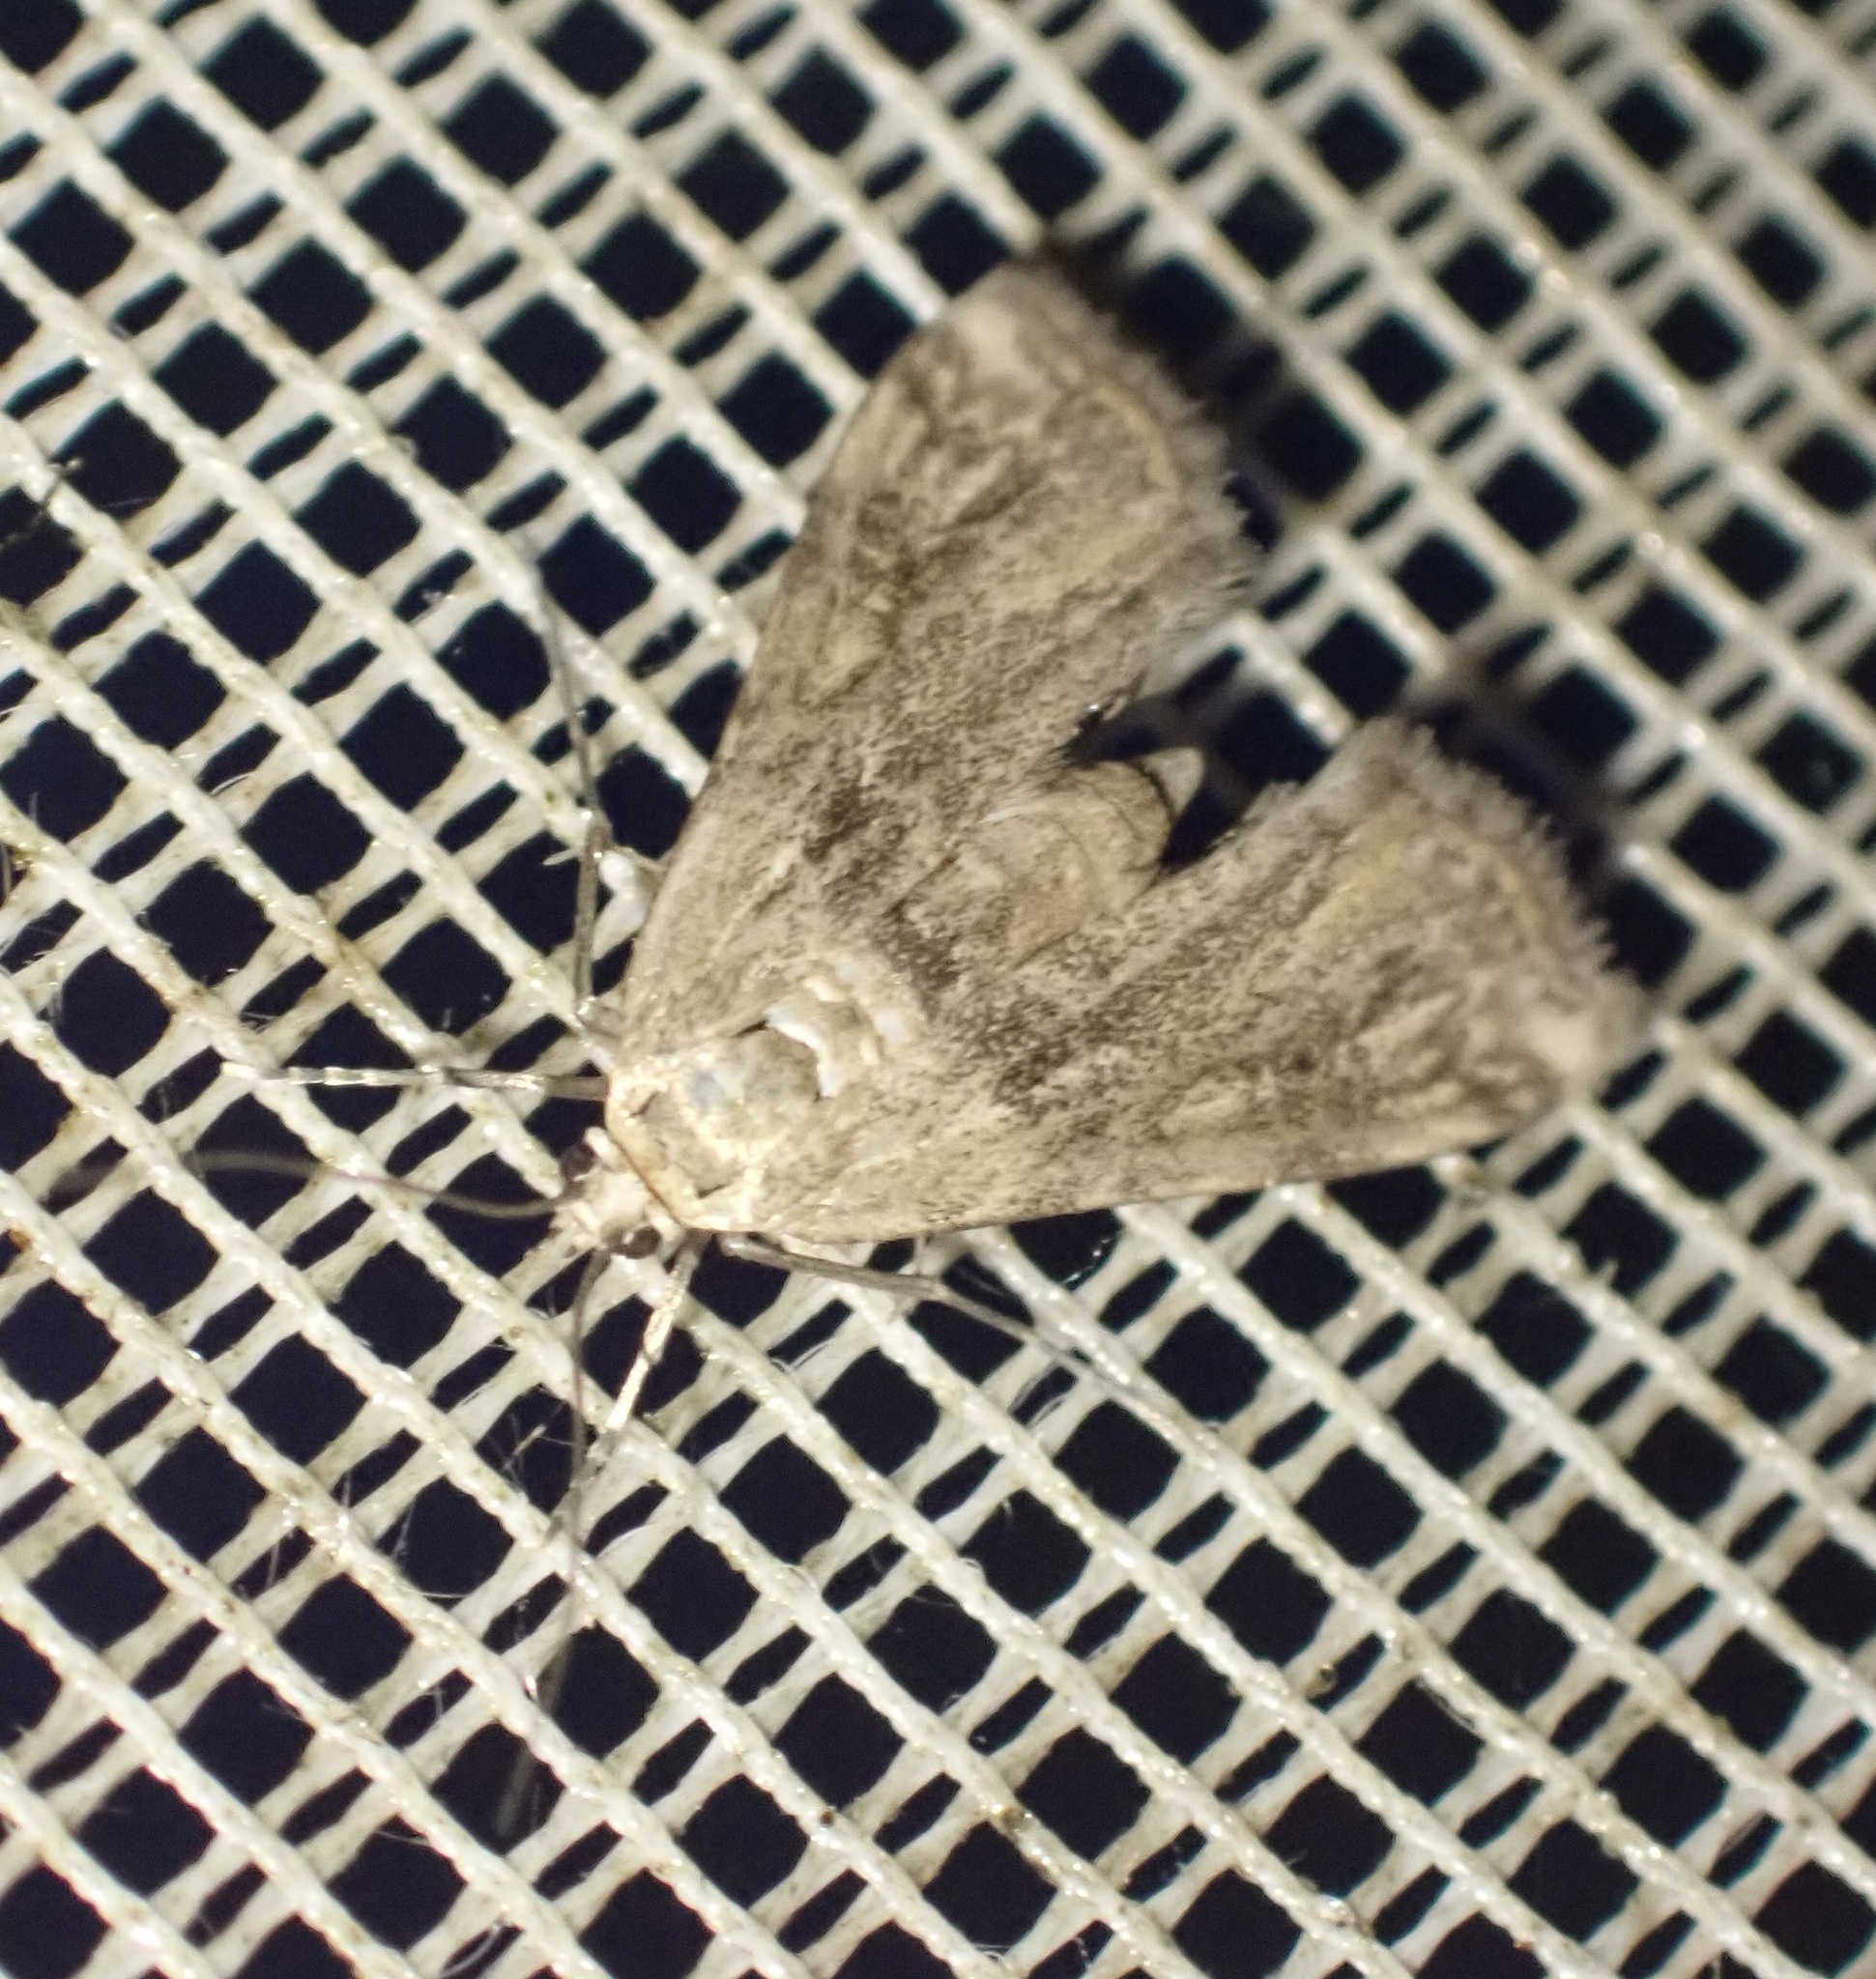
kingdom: Animalia
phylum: Arthropoda
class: Insecta
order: Lepidoptera
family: Crambidae
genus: Cataclysta
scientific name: Cataclysta lemnata
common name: Small china-mark
